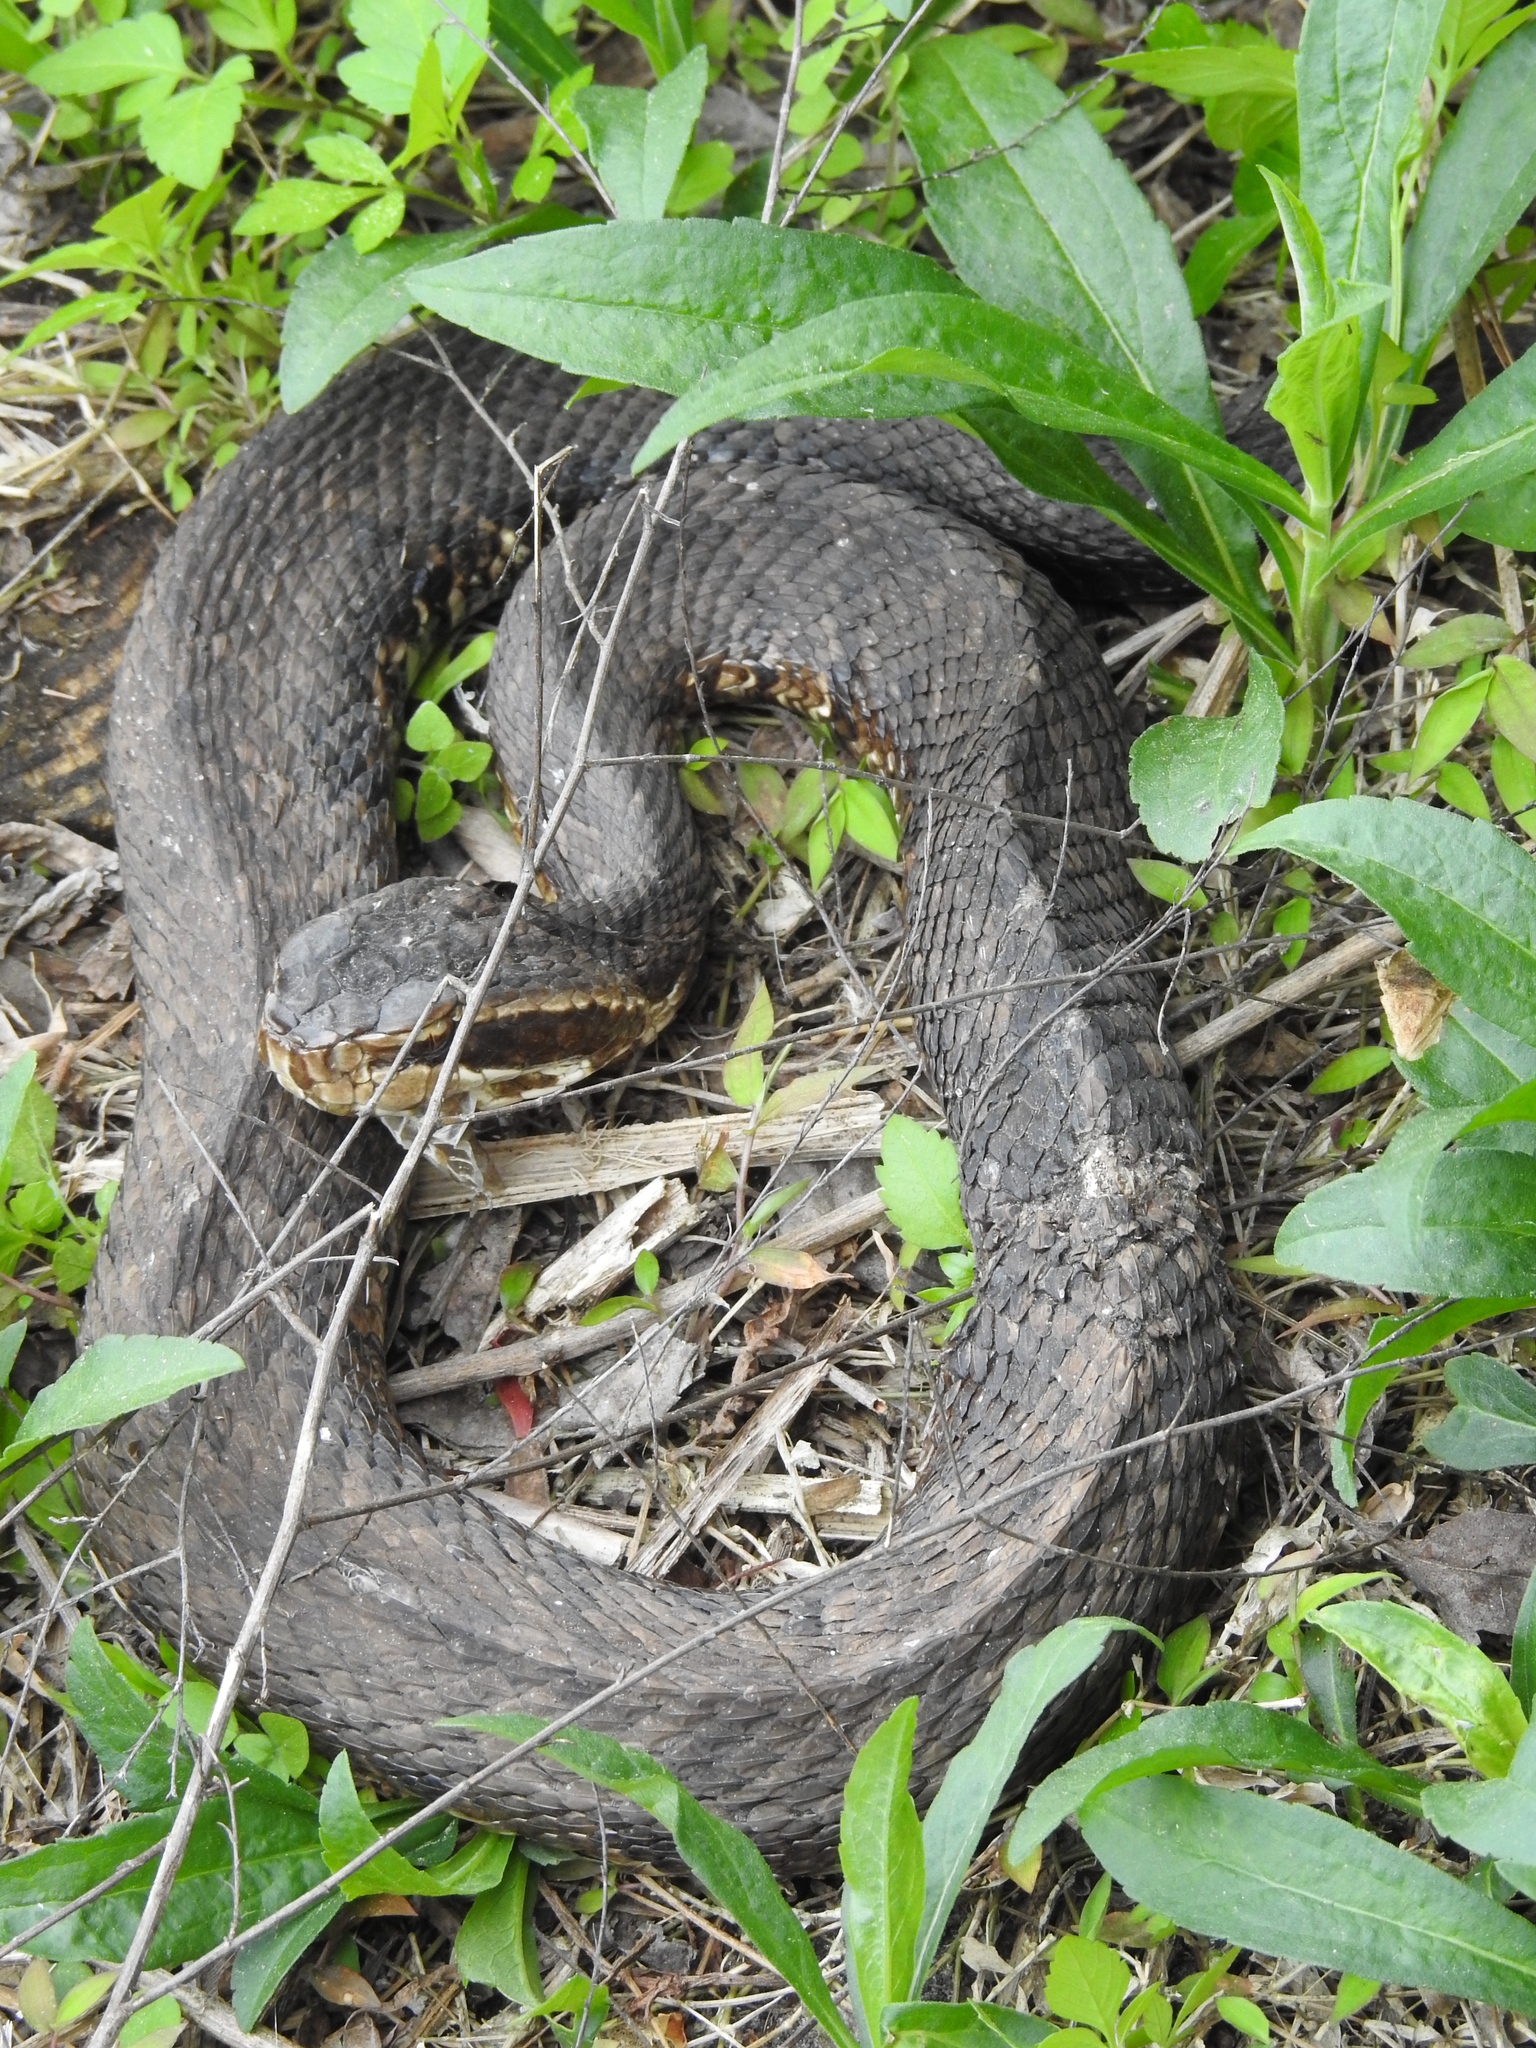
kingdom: Animalia
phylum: Chordata
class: Squamata
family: Viperidae
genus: Agkistrodon
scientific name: Agkistrodon conanti
